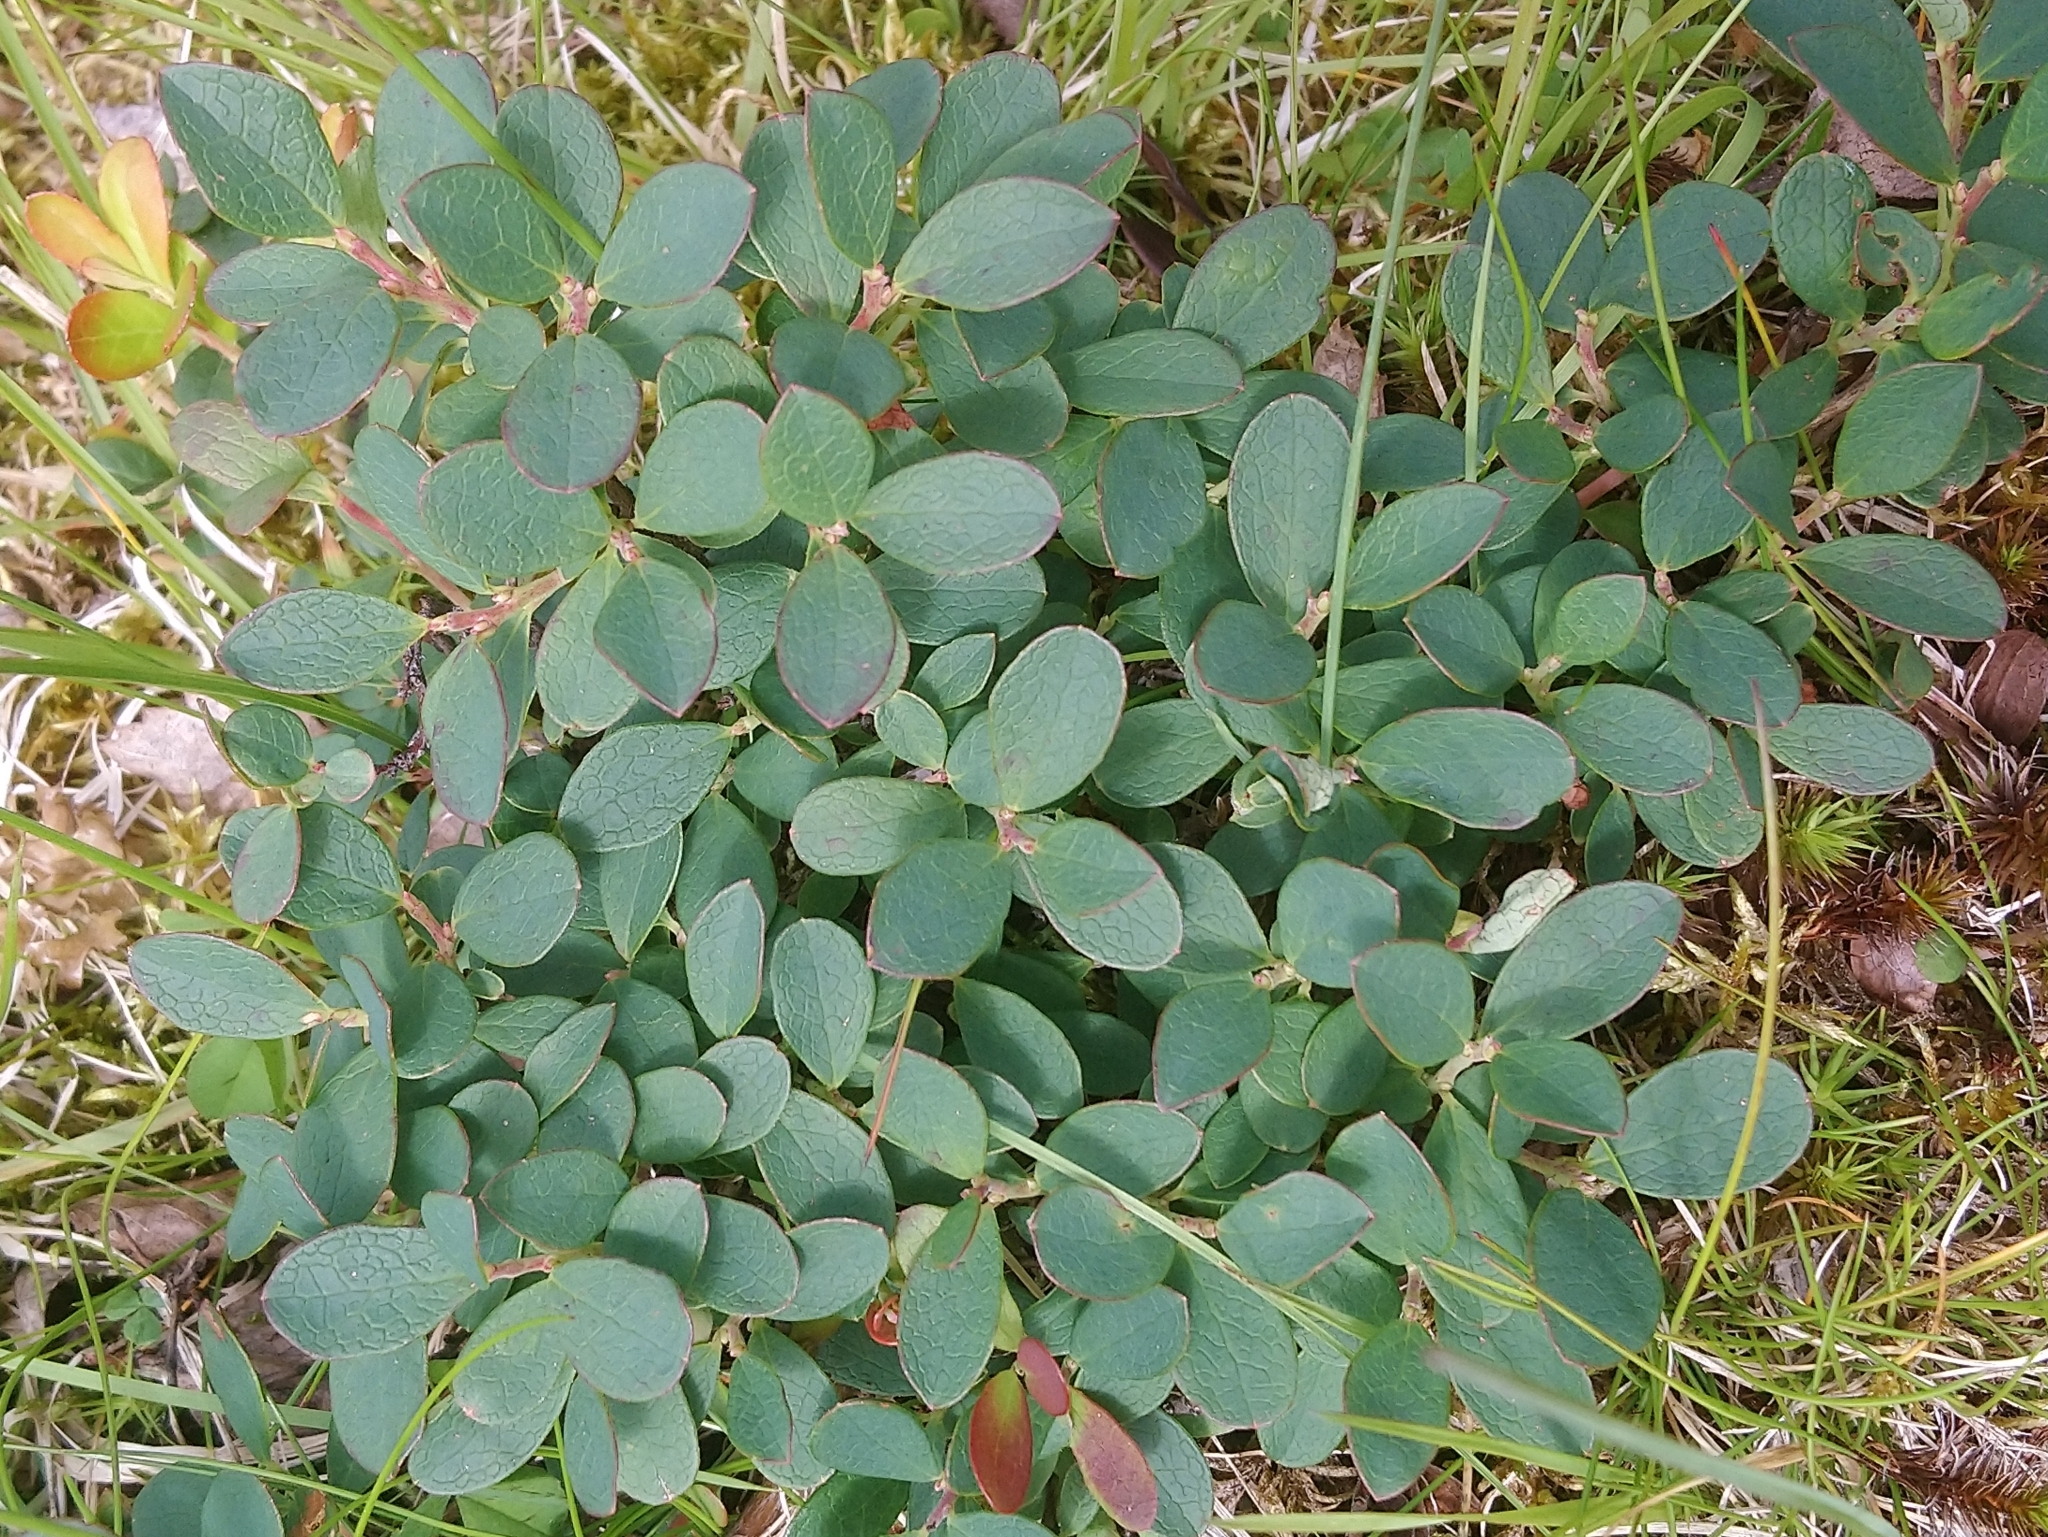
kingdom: Plantae
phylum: Tracheophyta
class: Magnoliopsida
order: Ericales
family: Ericaceae
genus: Vaccinium
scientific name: Vaccinium uliginosum
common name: Bog bilberry
